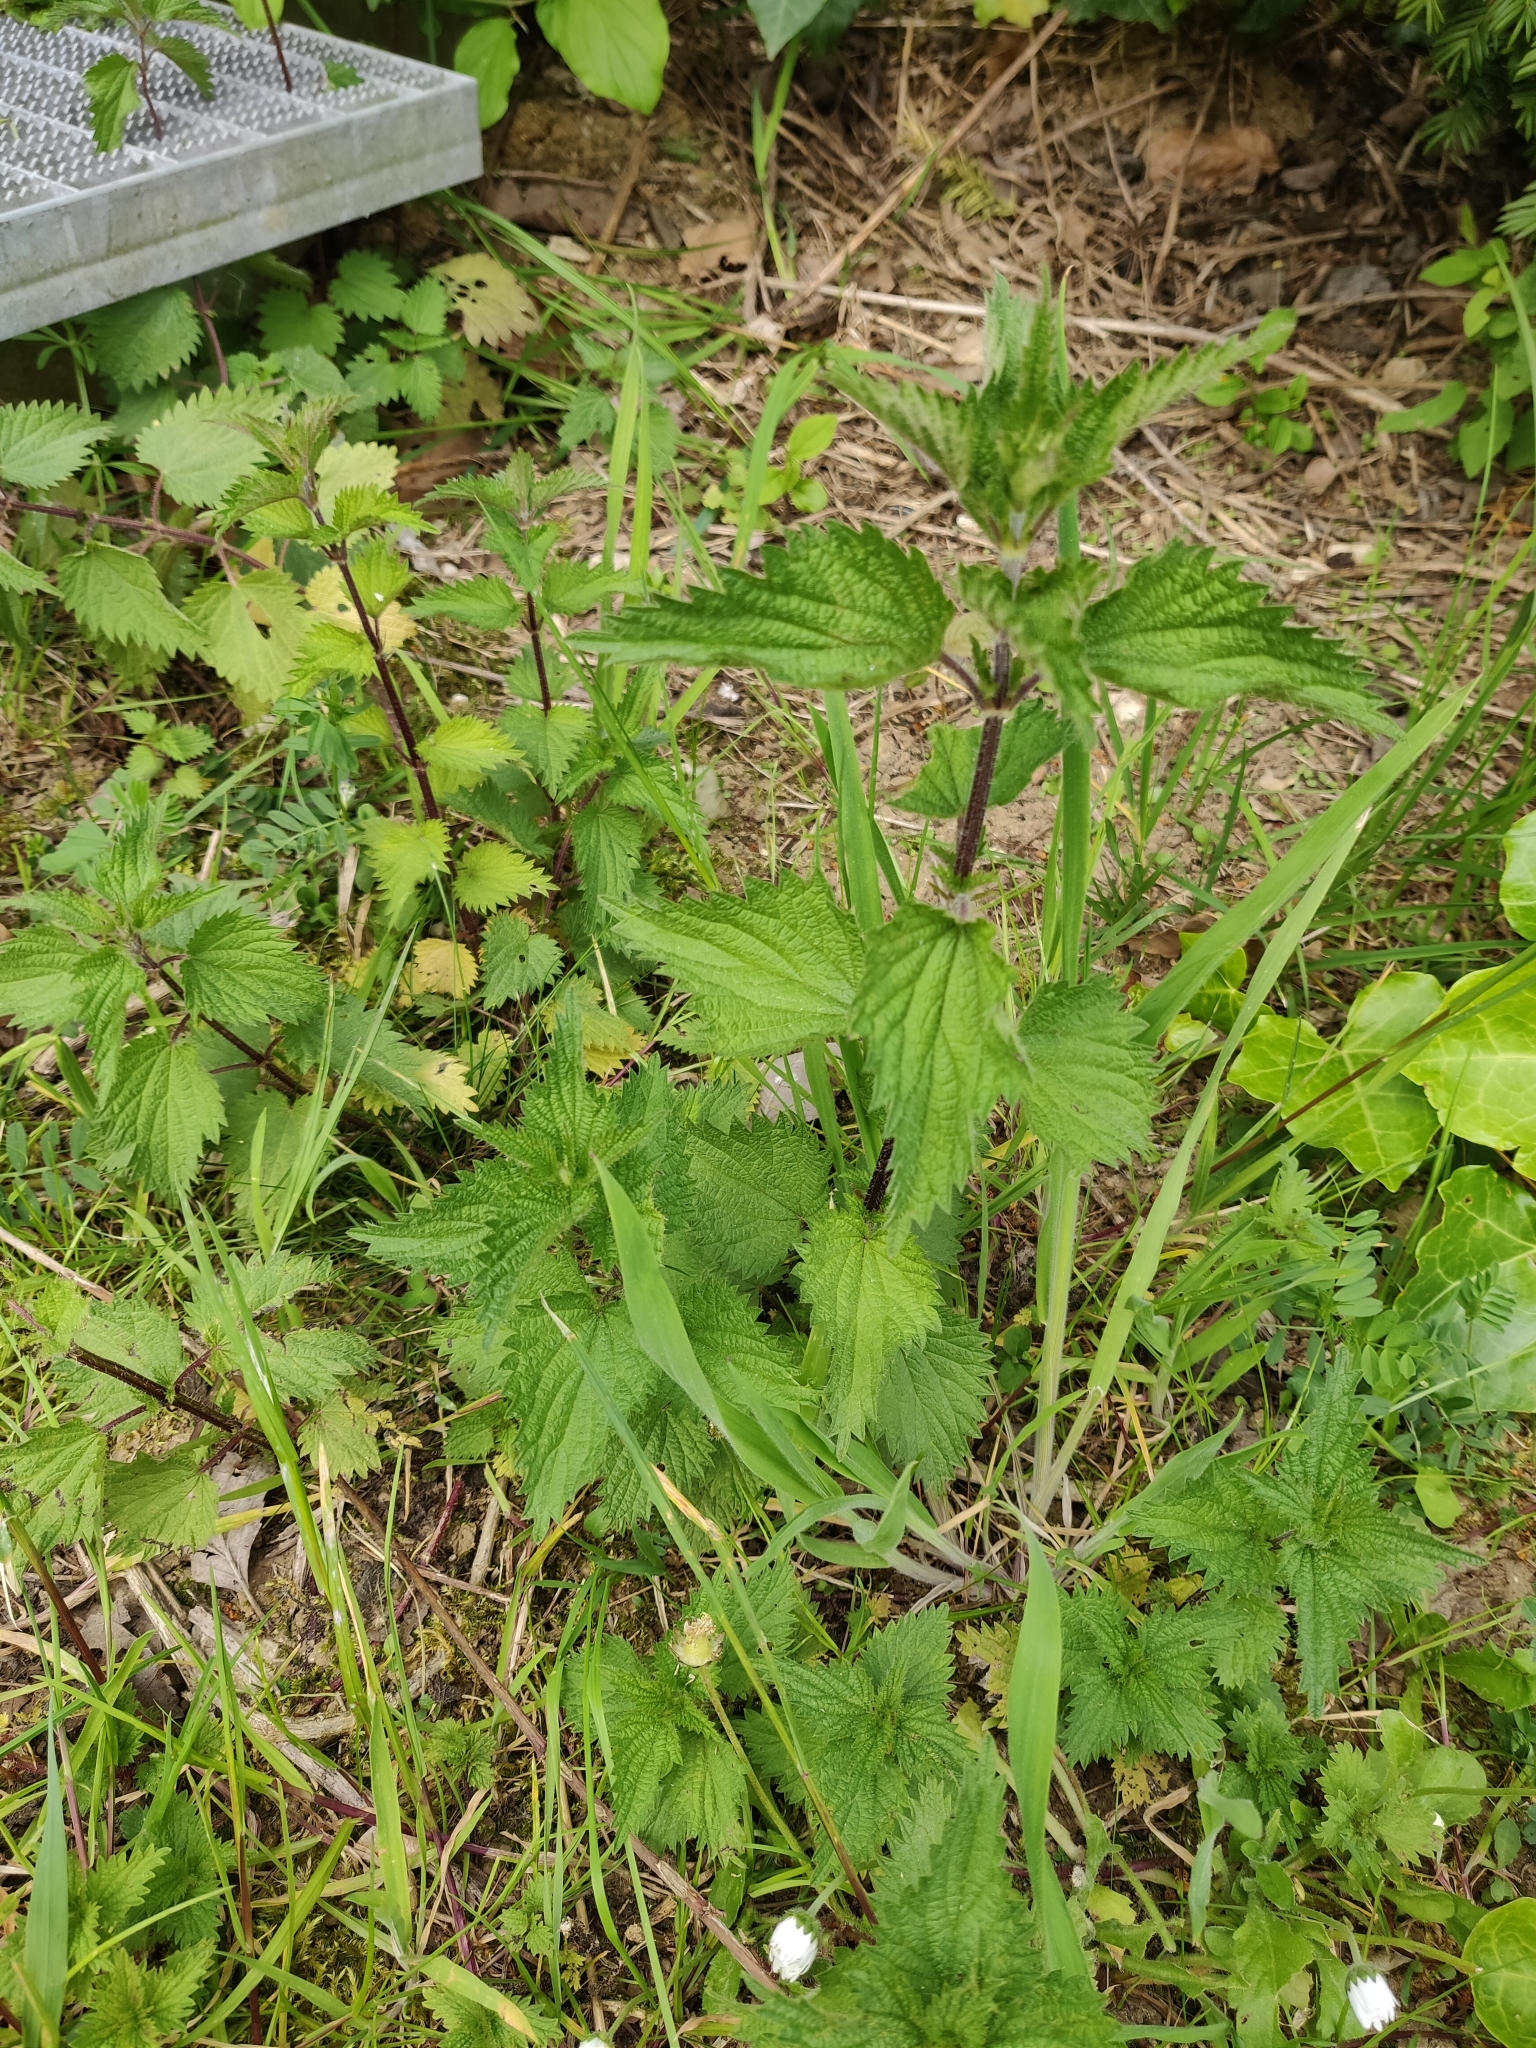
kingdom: Plantae
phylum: Tracheophyta
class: Magnoliopsida
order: Rosales
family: Urticaceae
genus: Urtica
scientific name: Urtica dioica
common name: Common nettle
